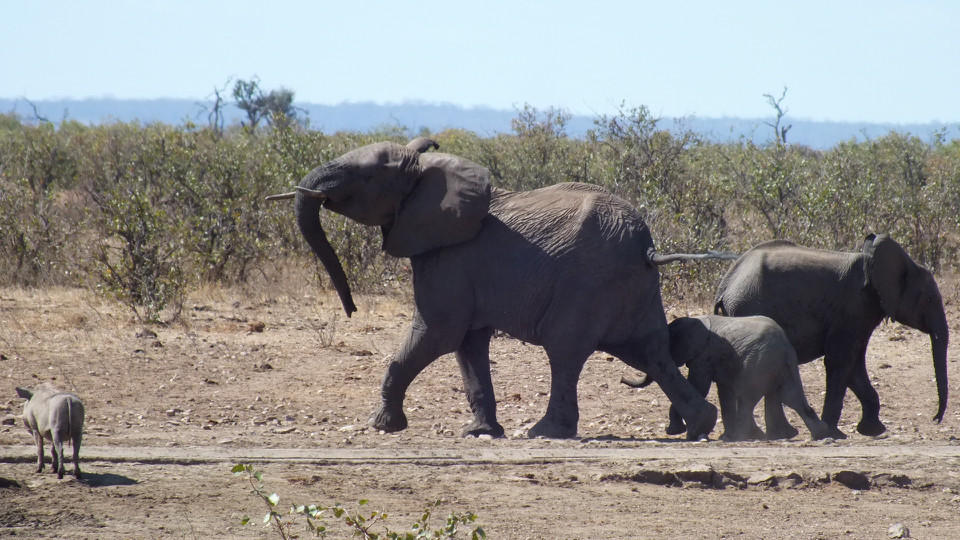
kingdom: Animalia
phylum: Chordata
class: Mammalia
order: Proboscidea
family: Elephantidae
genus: Loxodonta
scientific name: Loxodonta africana
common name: African elephant
